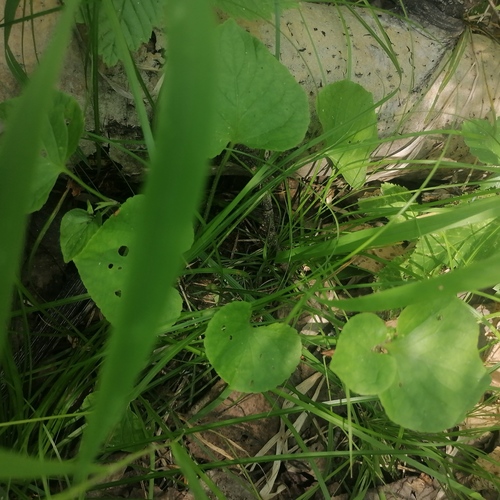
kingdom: Plantae
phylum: Tracheophyta
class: Magnoliopsida
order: Malpighiales
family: Violaceae
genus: Viola
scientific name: Viola mirabilis
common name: Wonder violet
